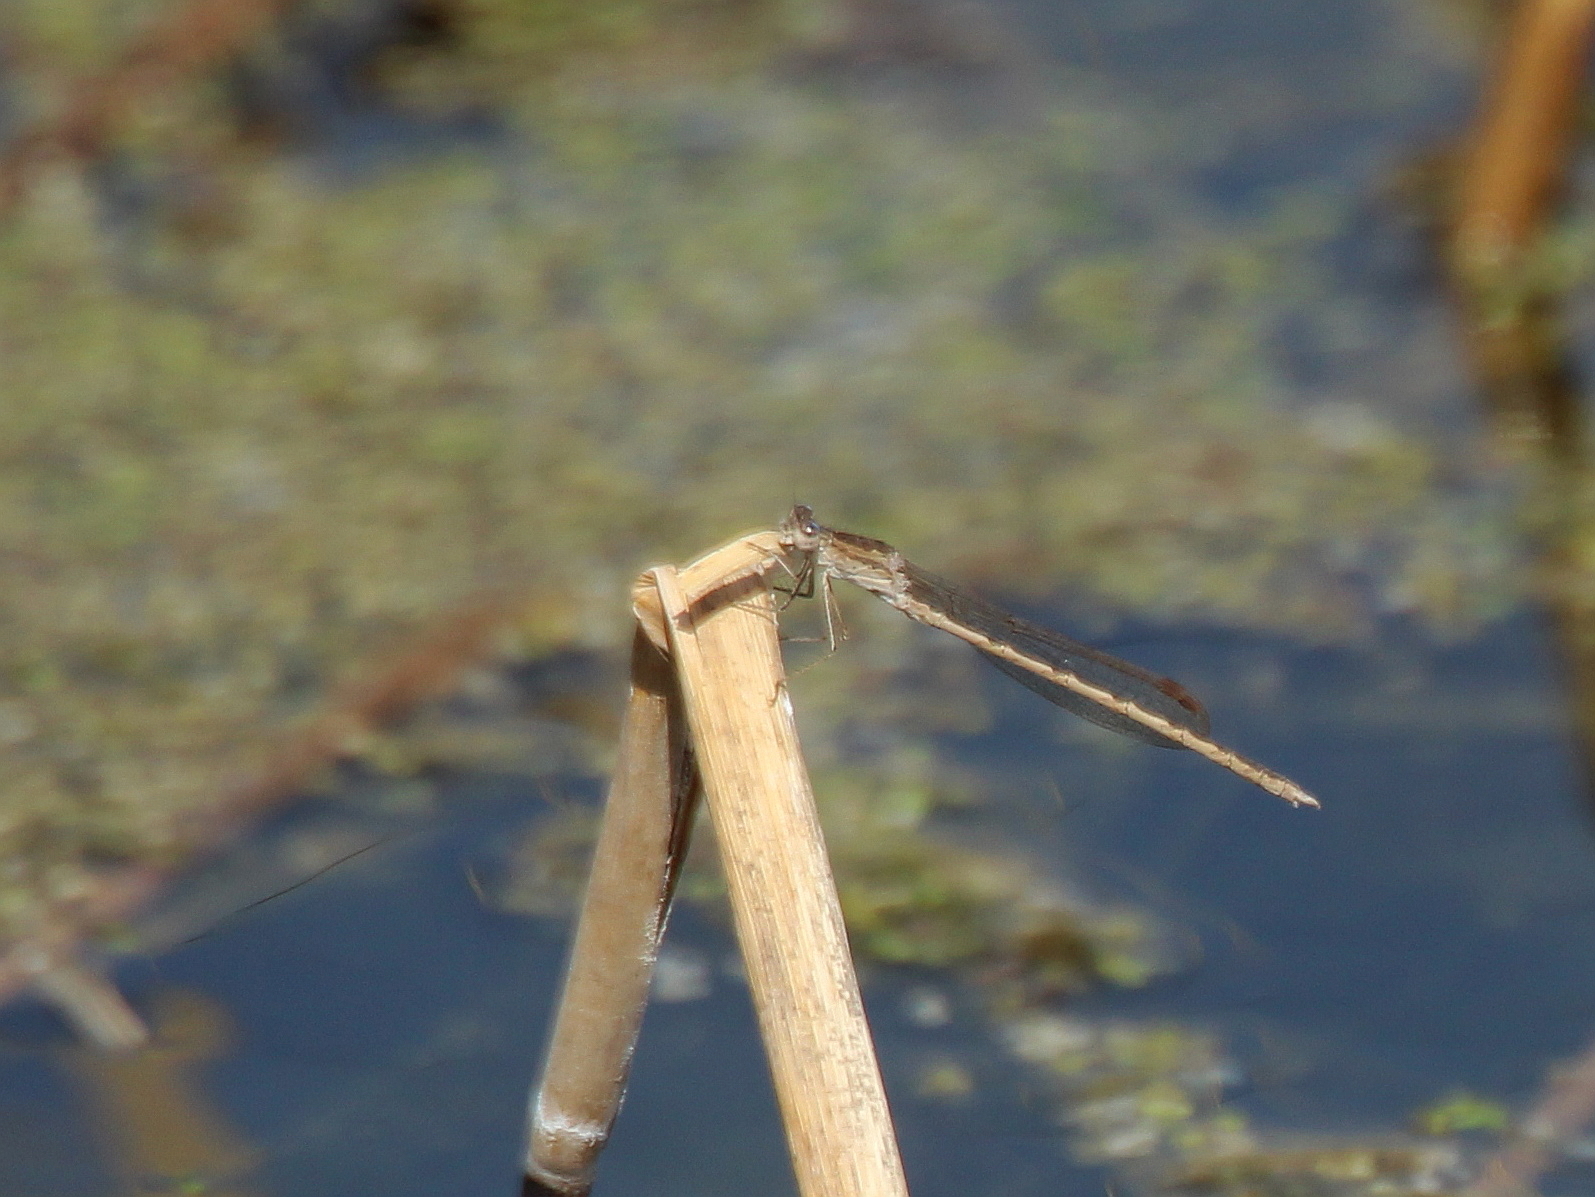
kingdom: Animalia
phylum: Arthropoda
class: Insecta
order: Odonata
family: Lestidae
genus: Sympecma
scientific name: Sympecma paedisca
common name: Siberian winter damsel
